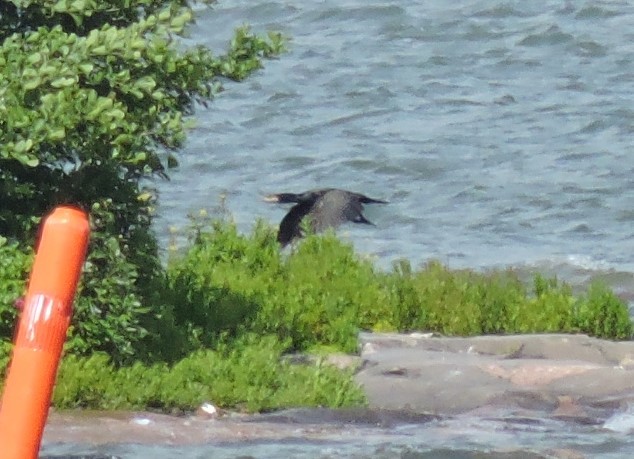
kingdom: Animalia
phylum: Chordata
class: Aves
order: Suliformes
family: Phalacrocoracidae
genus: Phalacrocorax
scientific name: Phalacrocorax carbo
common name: Great cormorant
